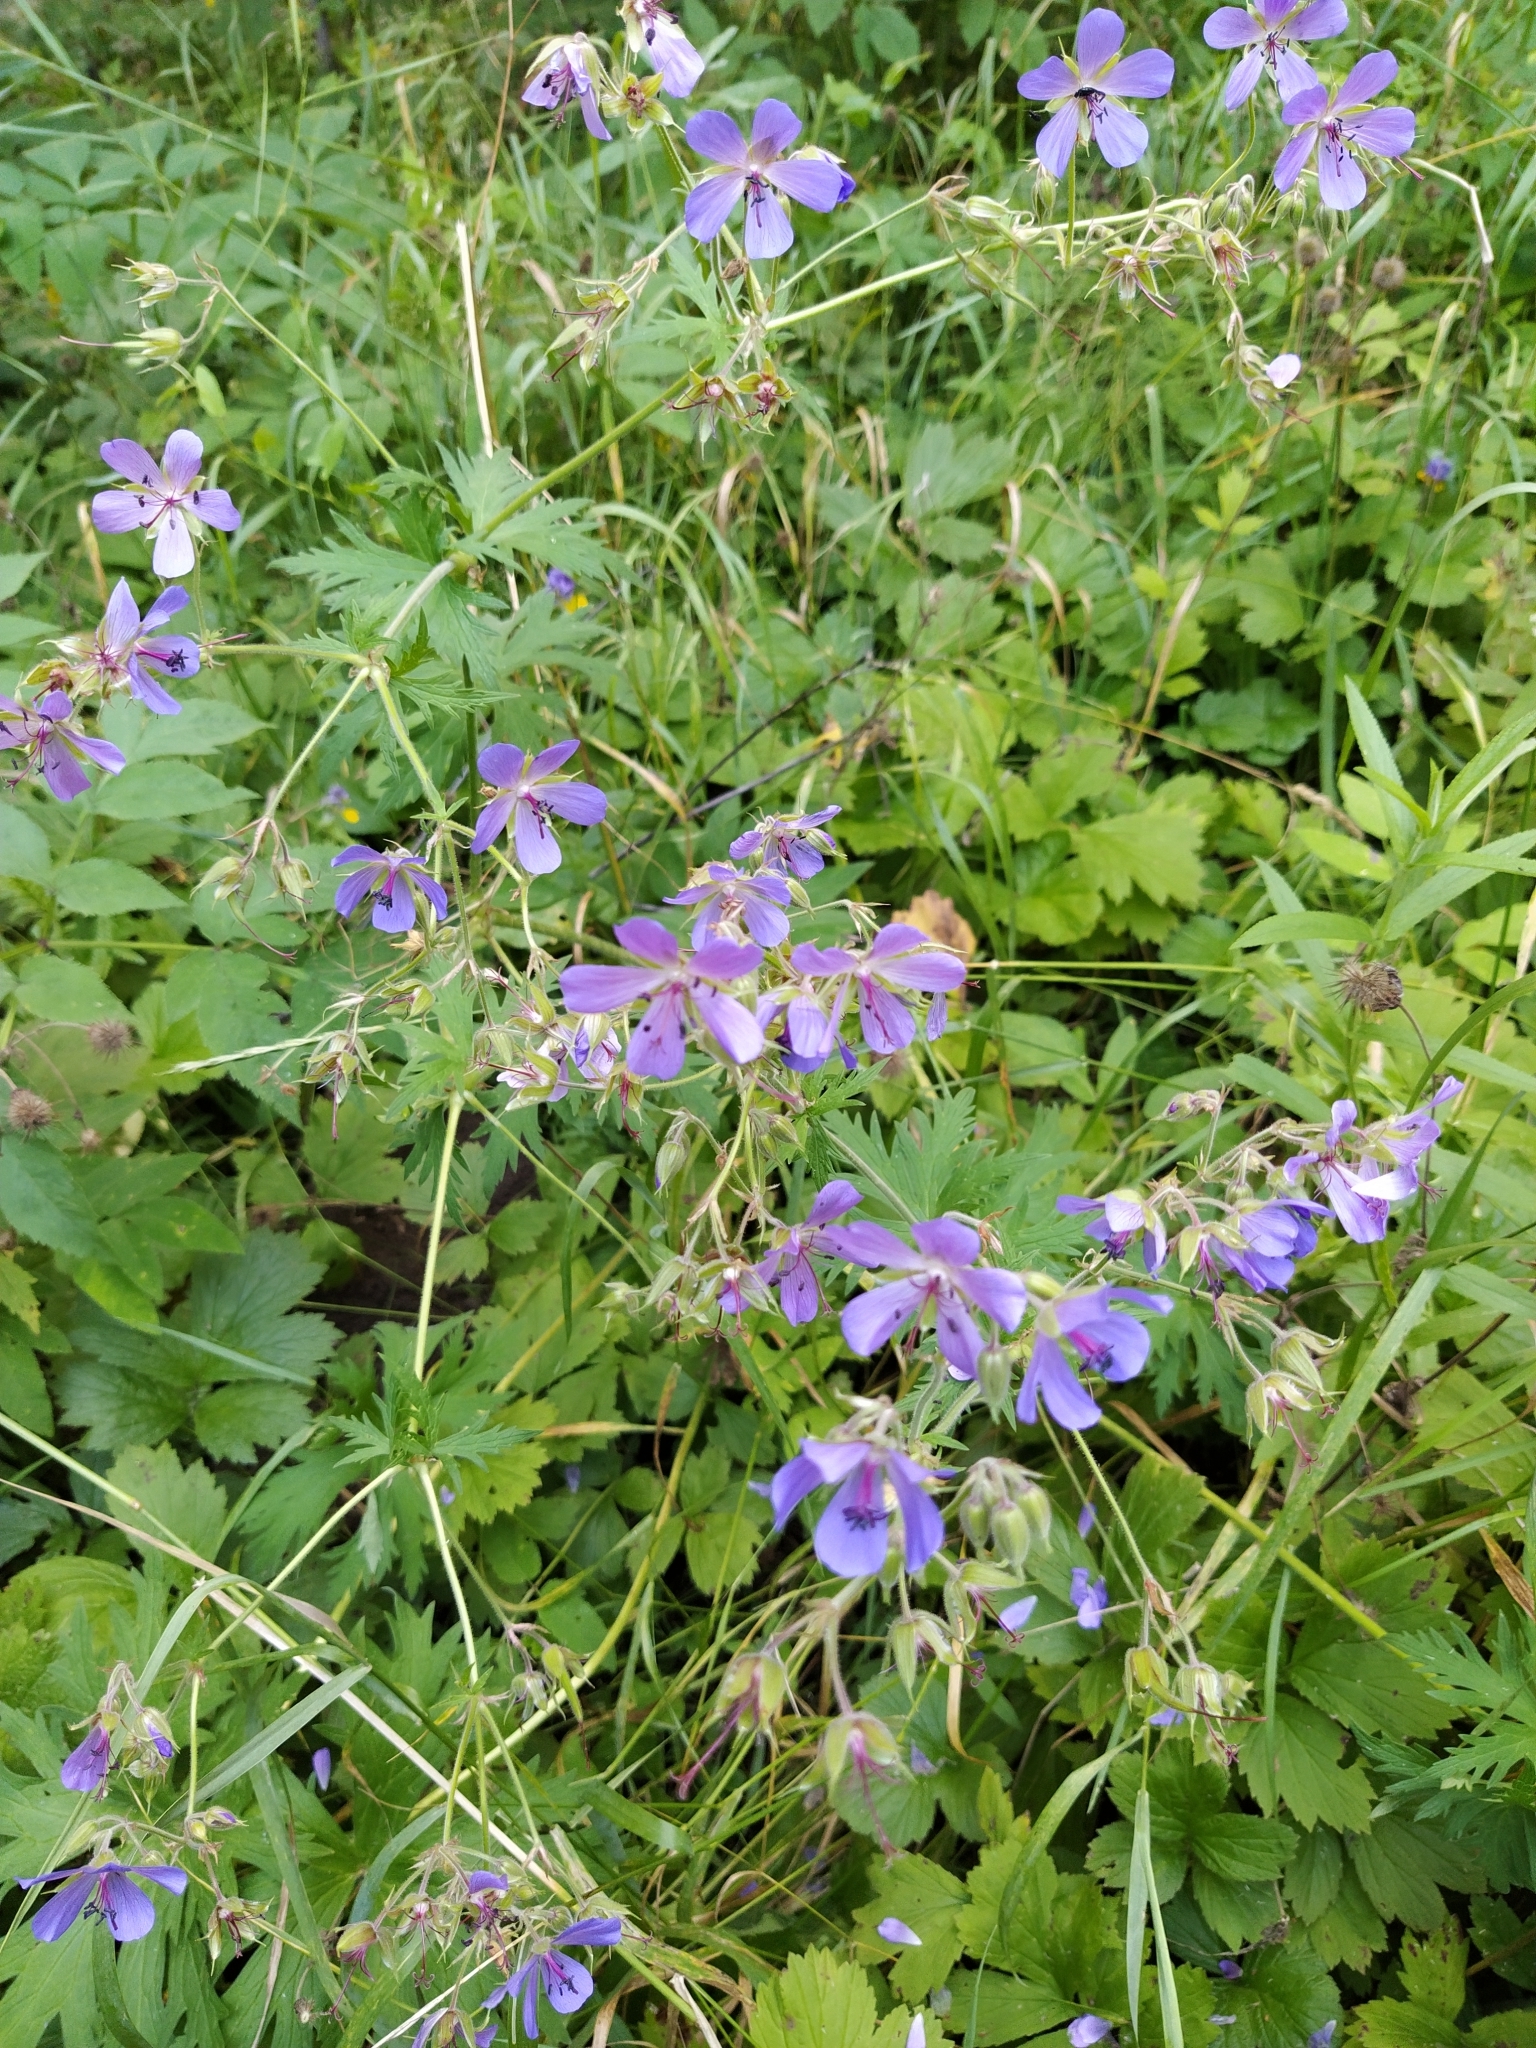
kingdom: Plantae
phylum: Tracheophyta
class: Magnoliopsida
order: Geraniales
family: Geraniaceae
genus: Geranium
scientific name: Geranium pratense
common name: Meadow crane's-bill
